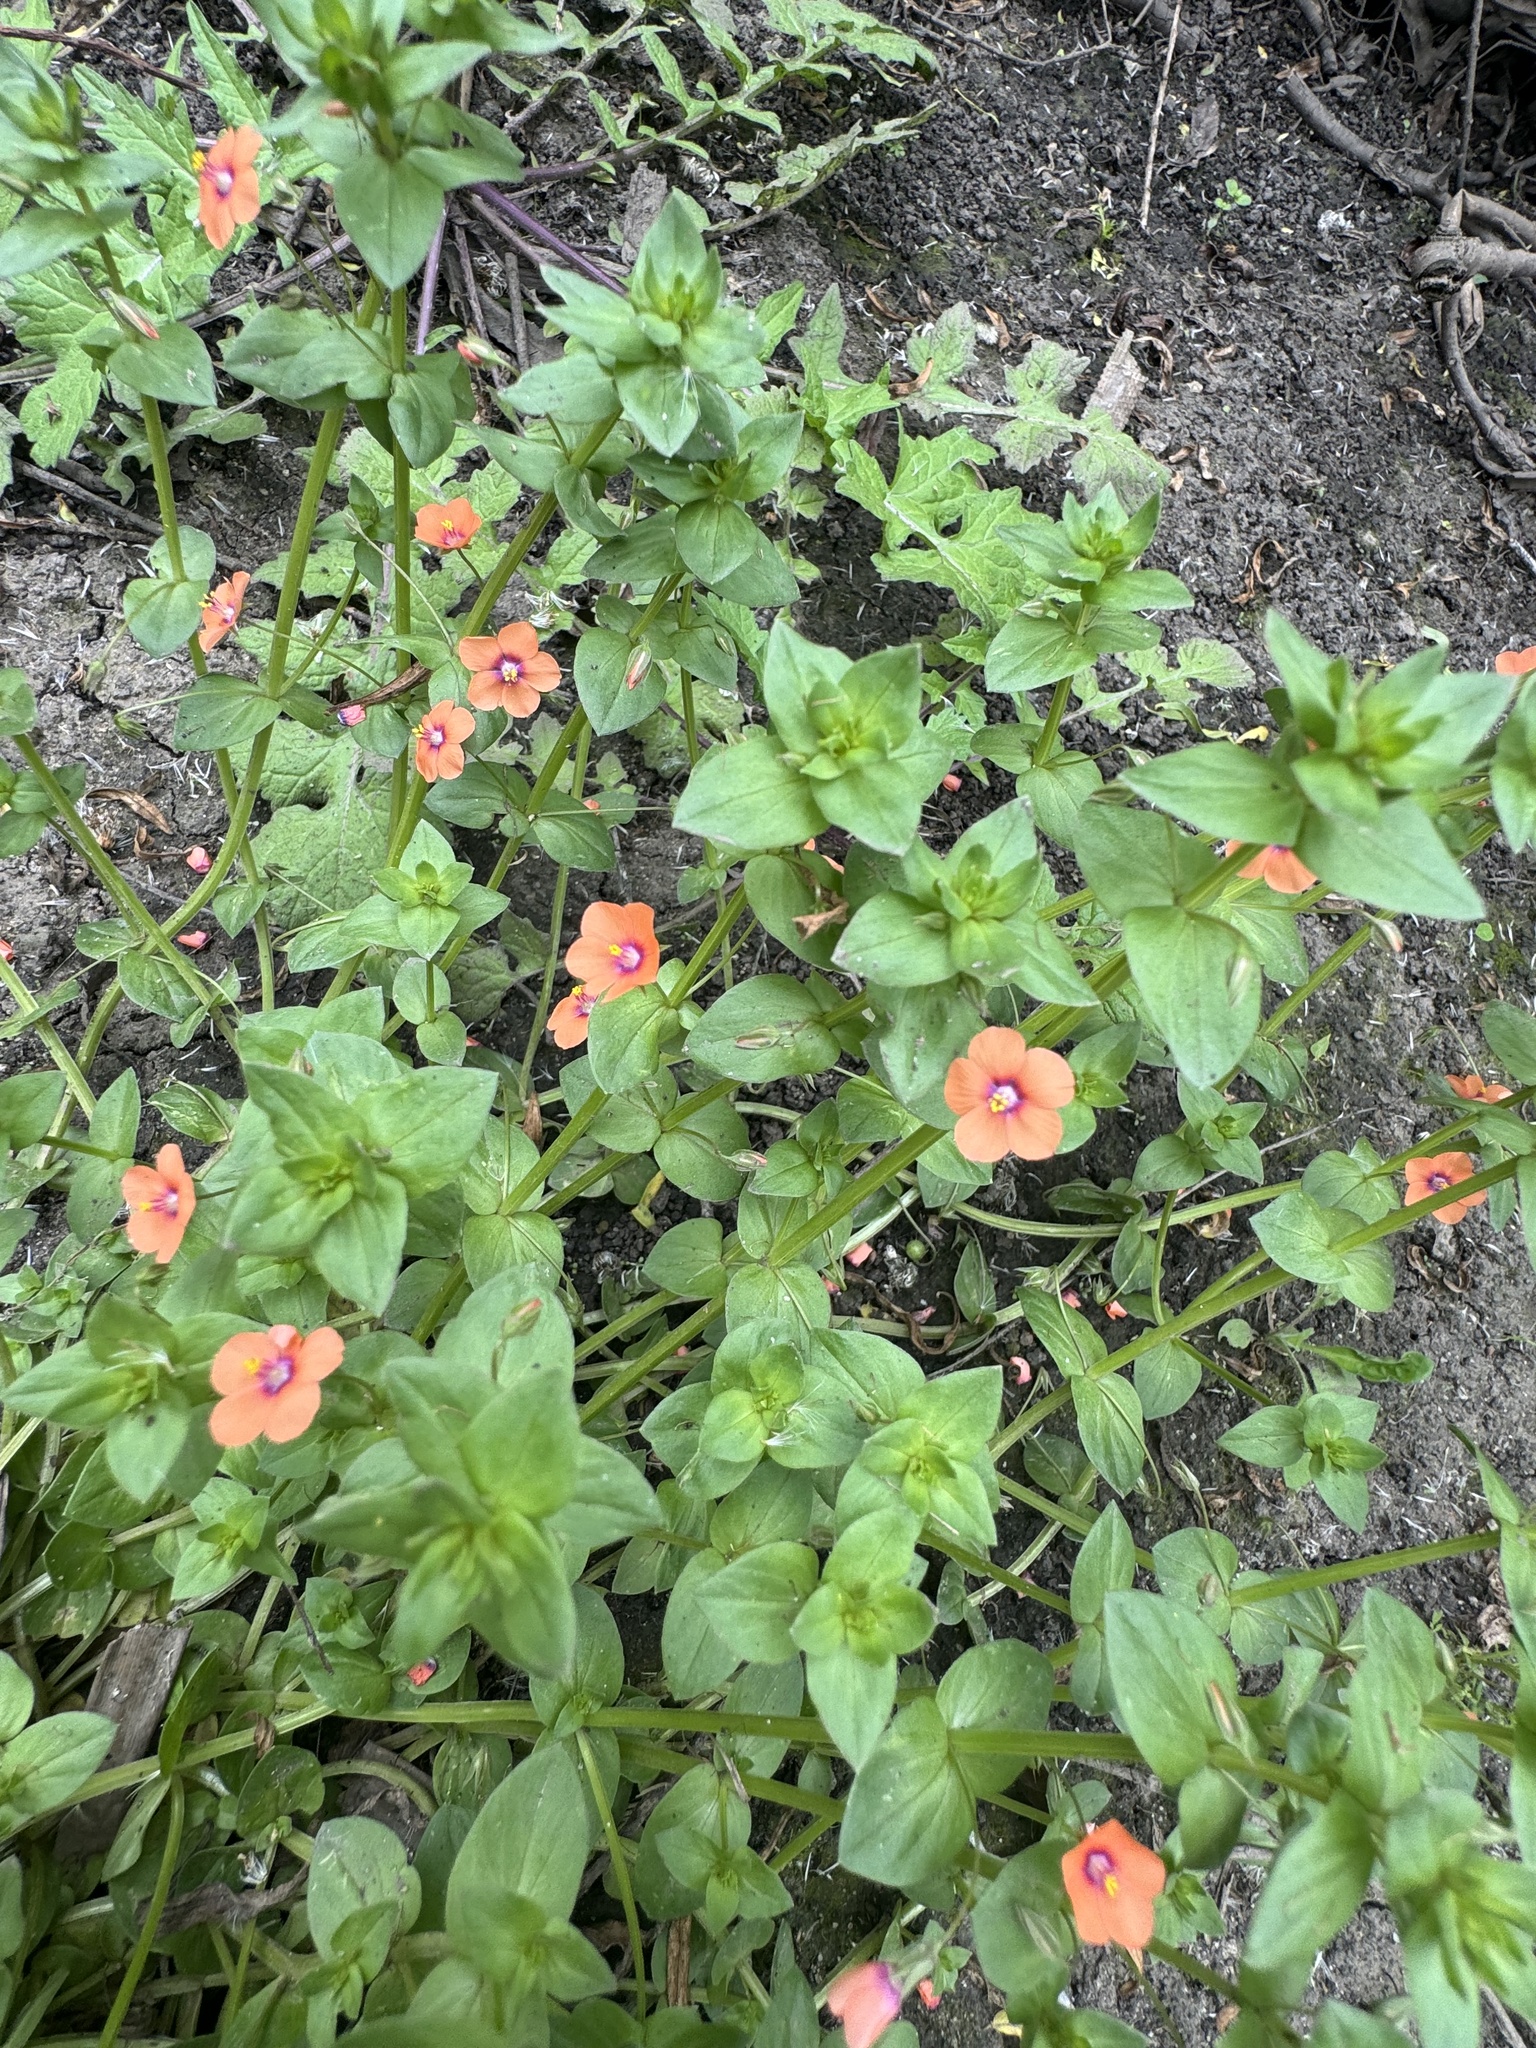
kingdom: Plantae
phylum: Tracheophyta
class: Magnoliopsida
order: Ericales
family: Primulaceae
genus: Lysimachia
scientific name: Lysimachia arvensis
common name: Scarlet pimpernel
